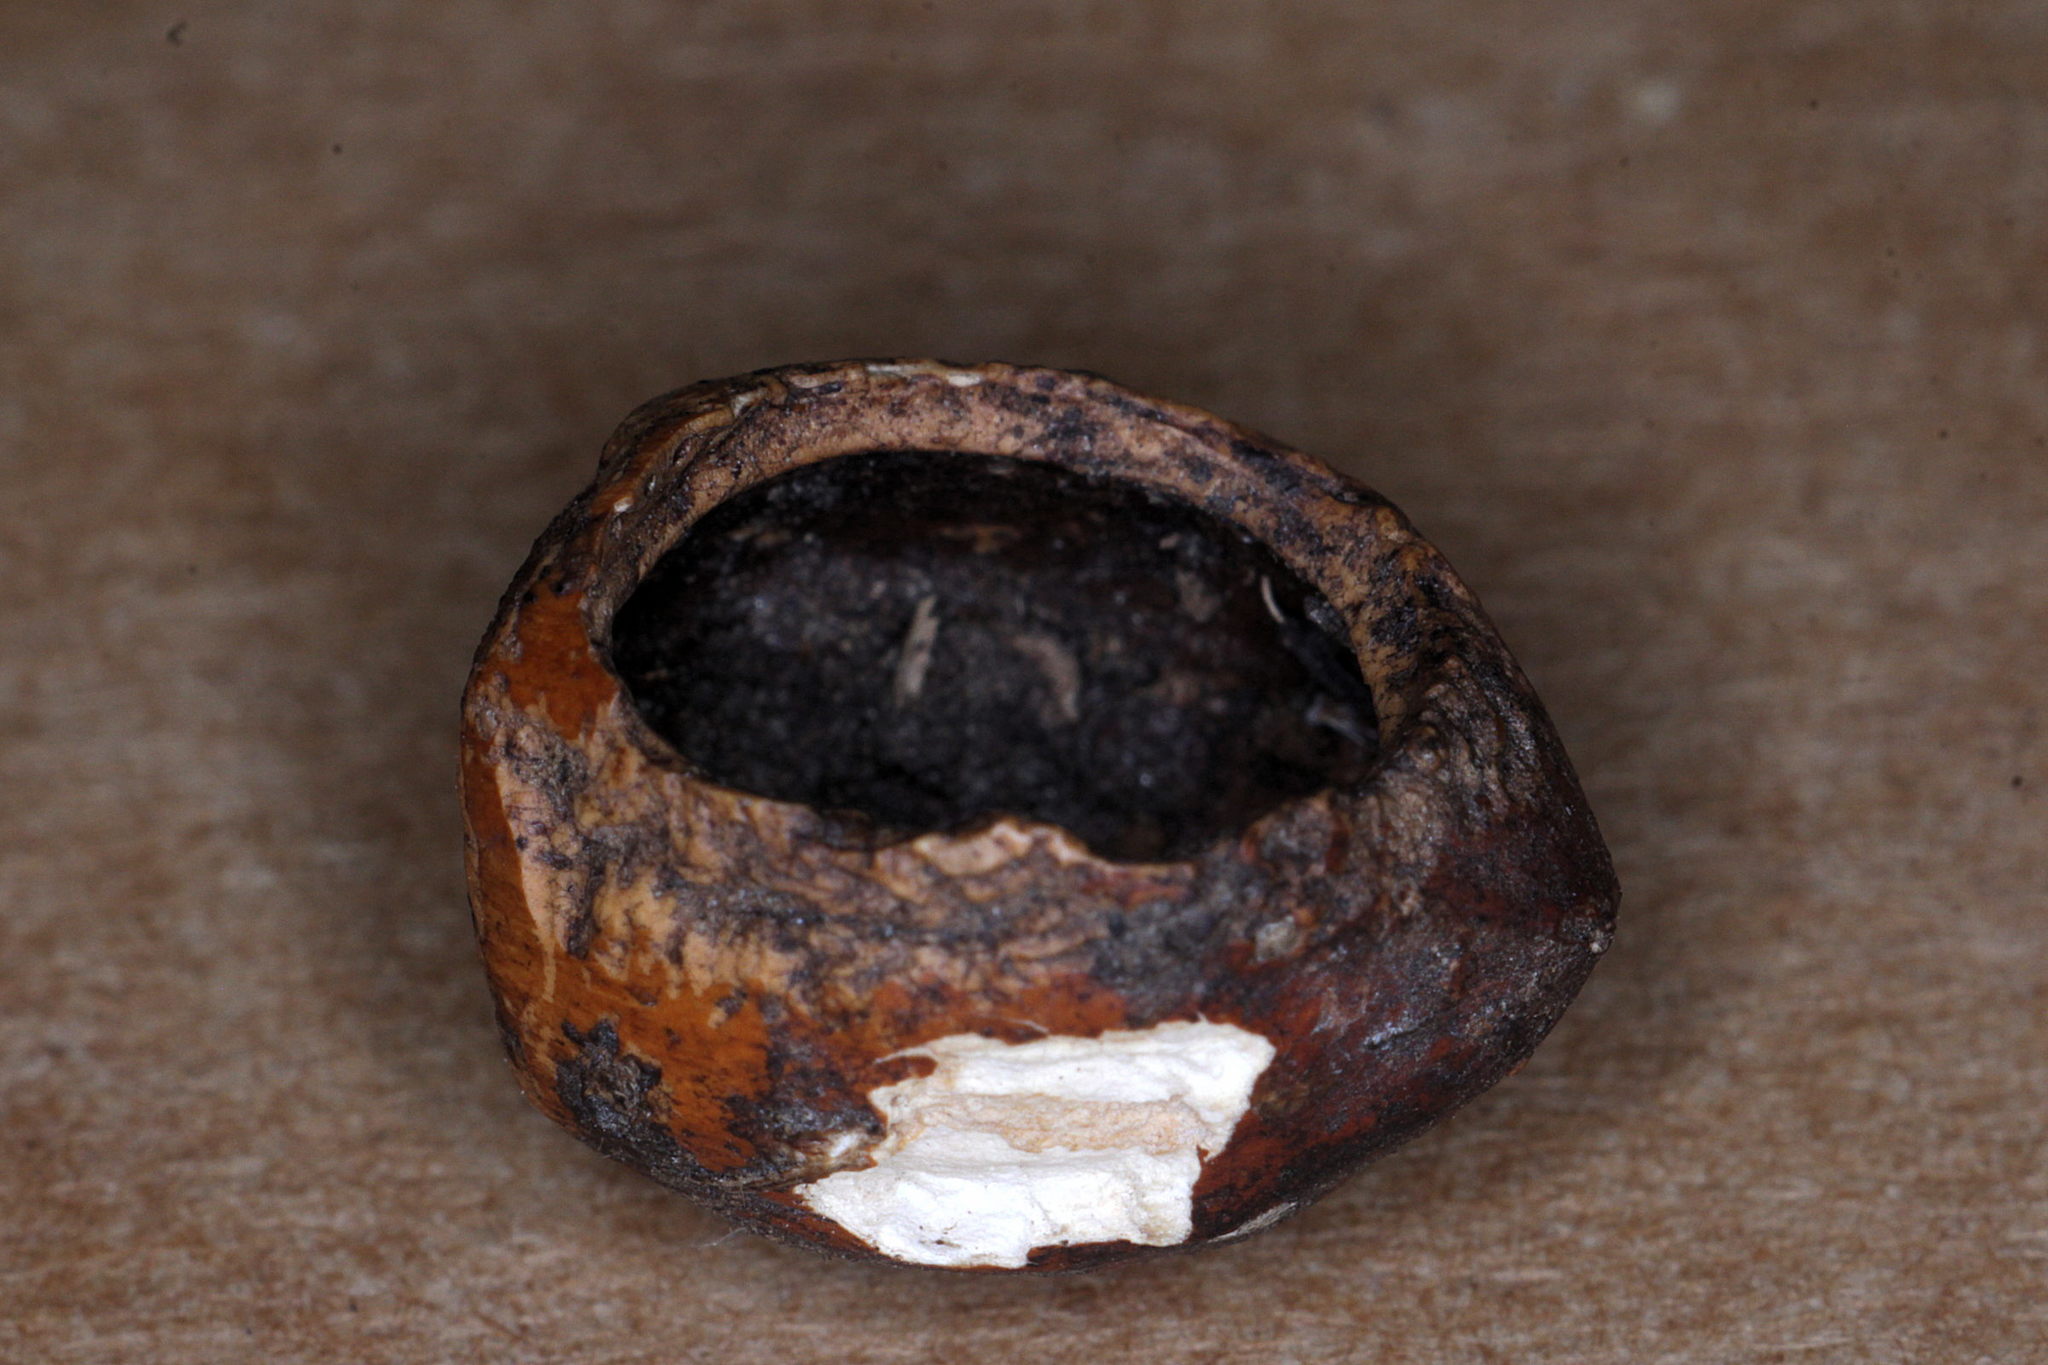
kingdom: Animalia
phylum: Chordata
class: Mammalia
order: Rodentia
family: Gliridae
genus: Muscardinus
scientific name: Muscardinus avellanarius
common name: Hazel dormouse
